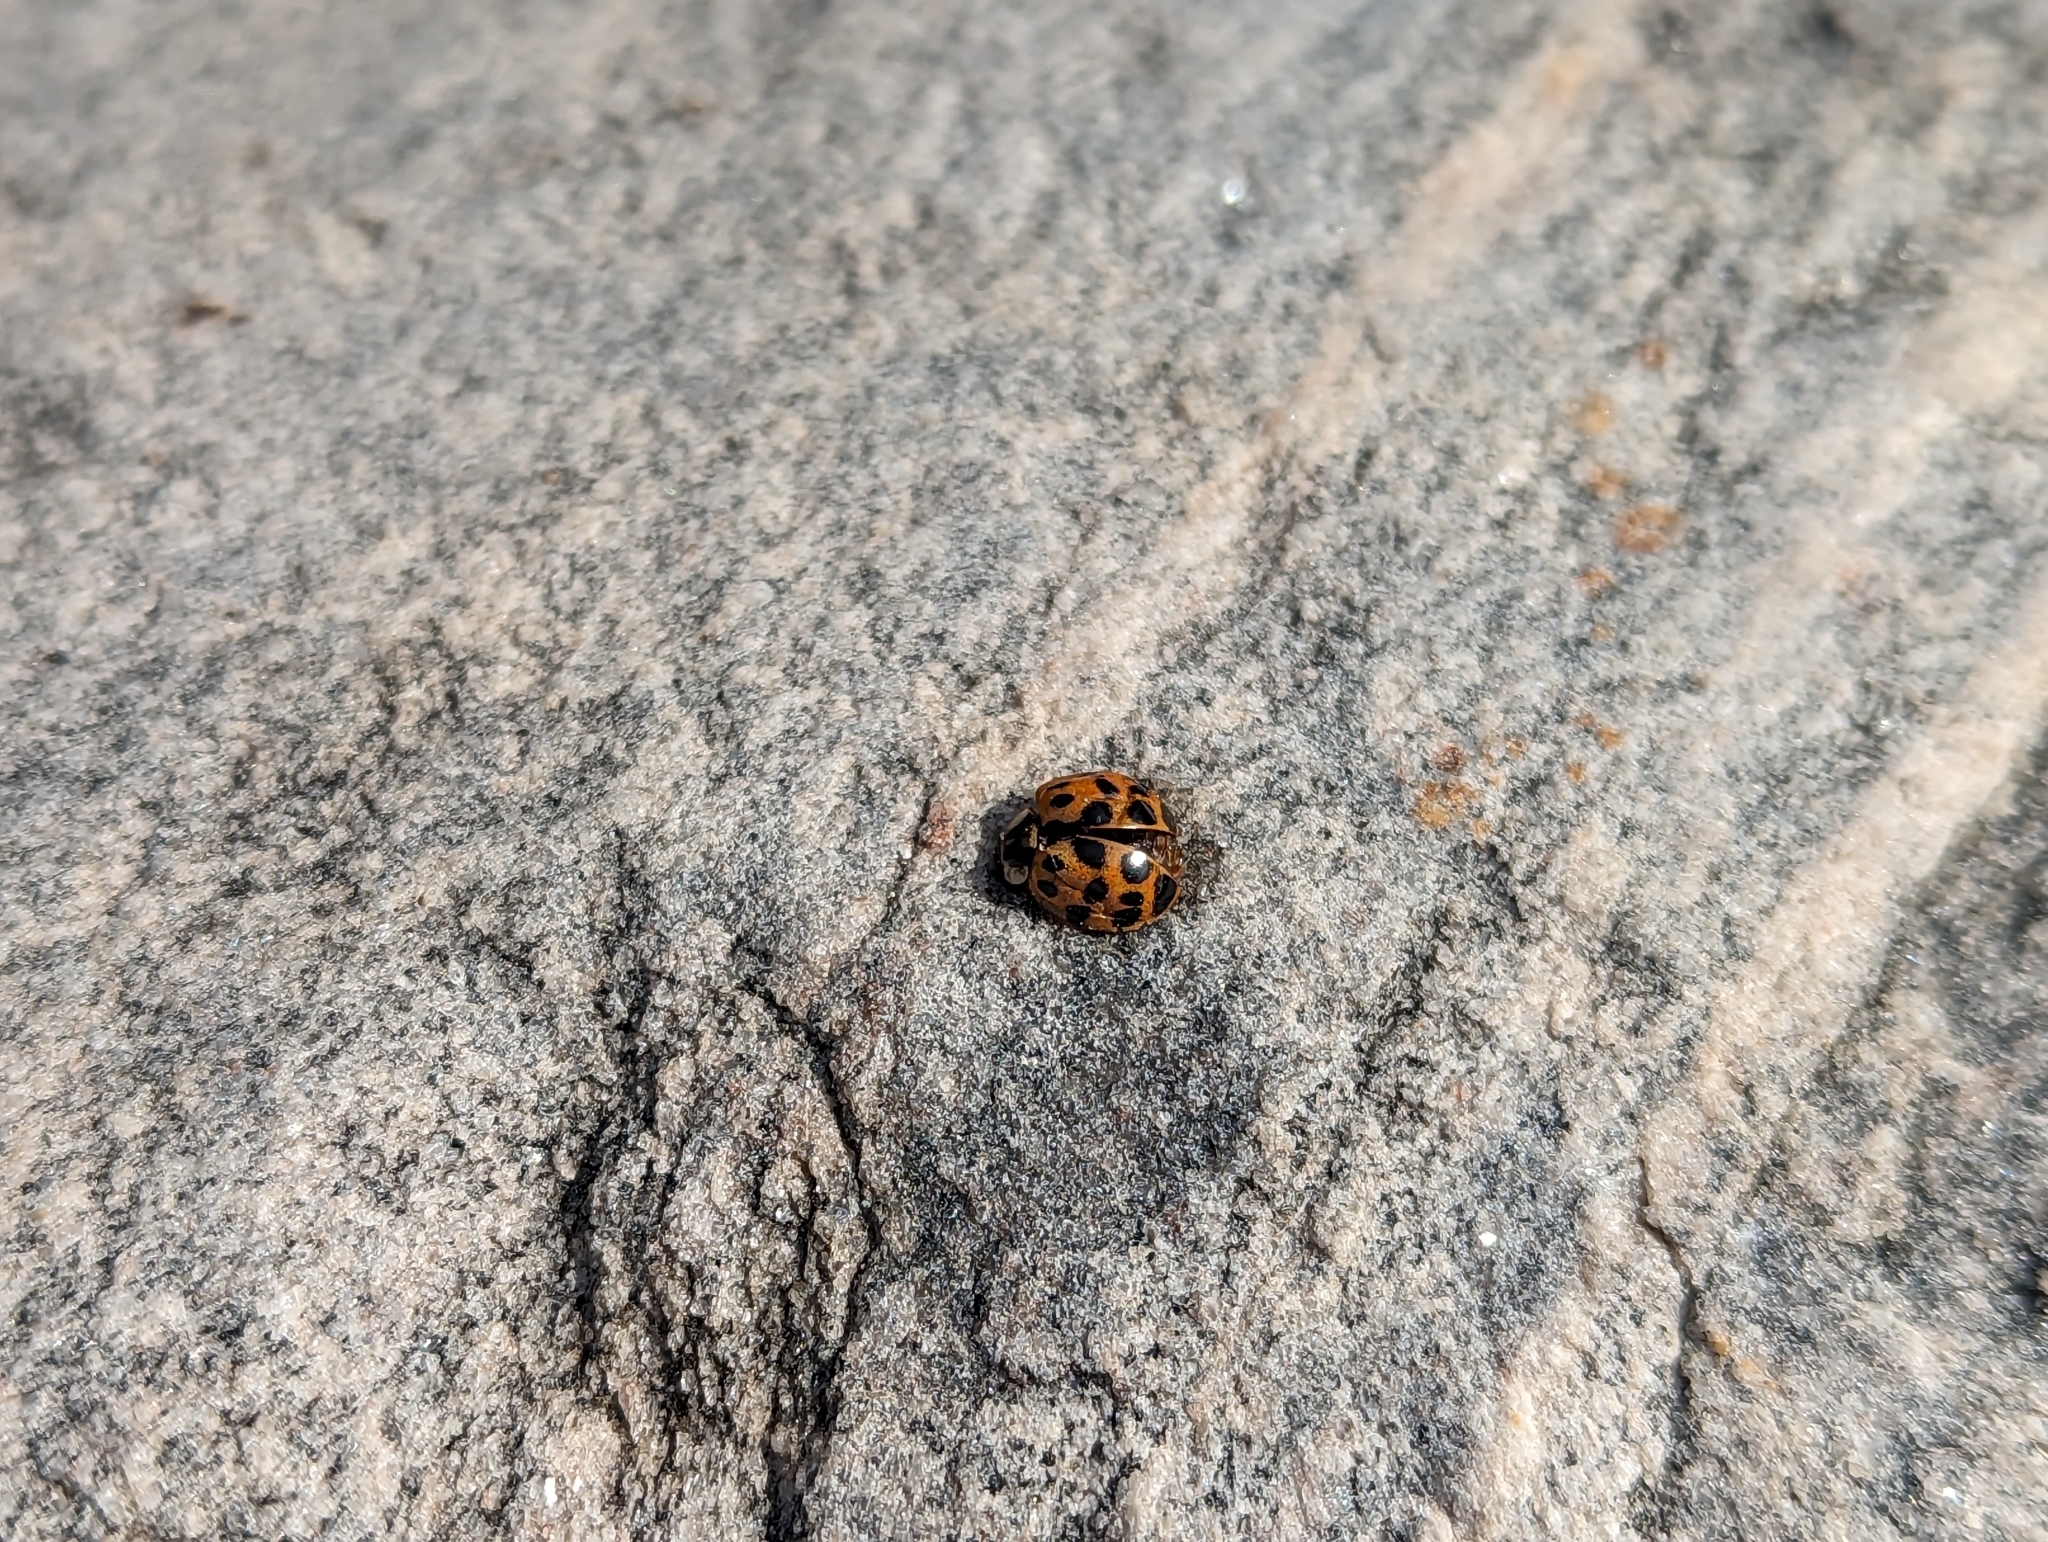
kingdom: Animalia
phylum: Arthropoda
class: Insecta
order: Coleoptera
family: Coccinellidae
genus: Harmonia
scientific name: Harmonia axyridis
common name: Harlequin ladybird
